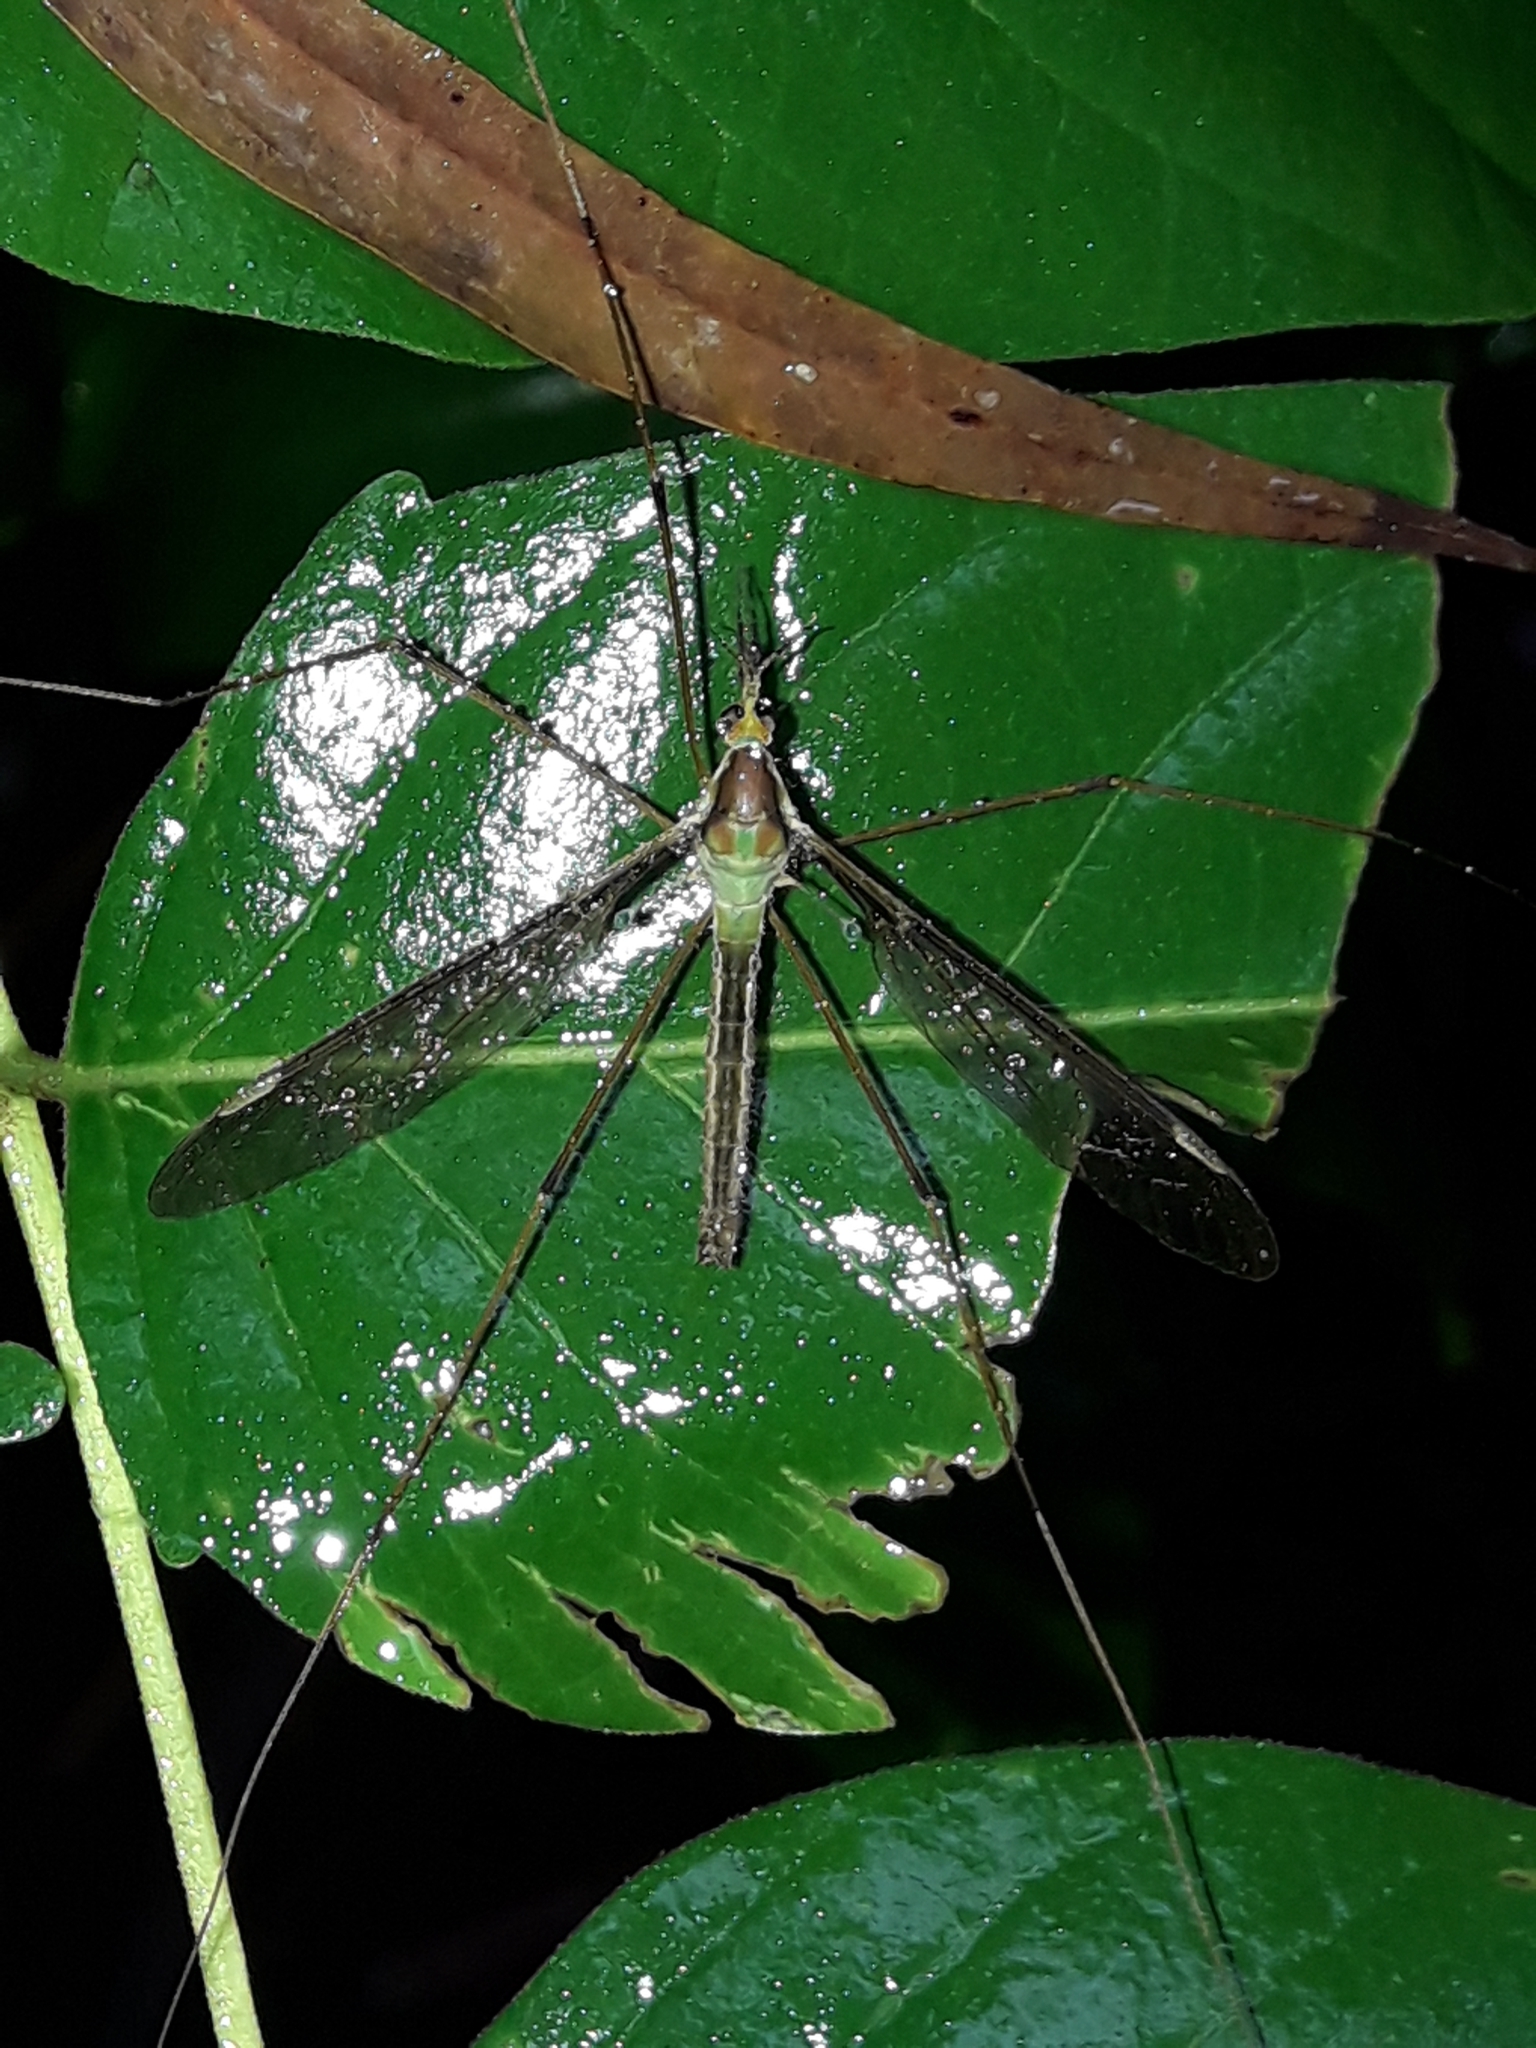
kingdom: Animalia
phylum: Arthropoda
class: Insecta
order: Diptera
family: Tipulidae
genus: Leptotarsus
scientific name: Leptotarsus albistigma
